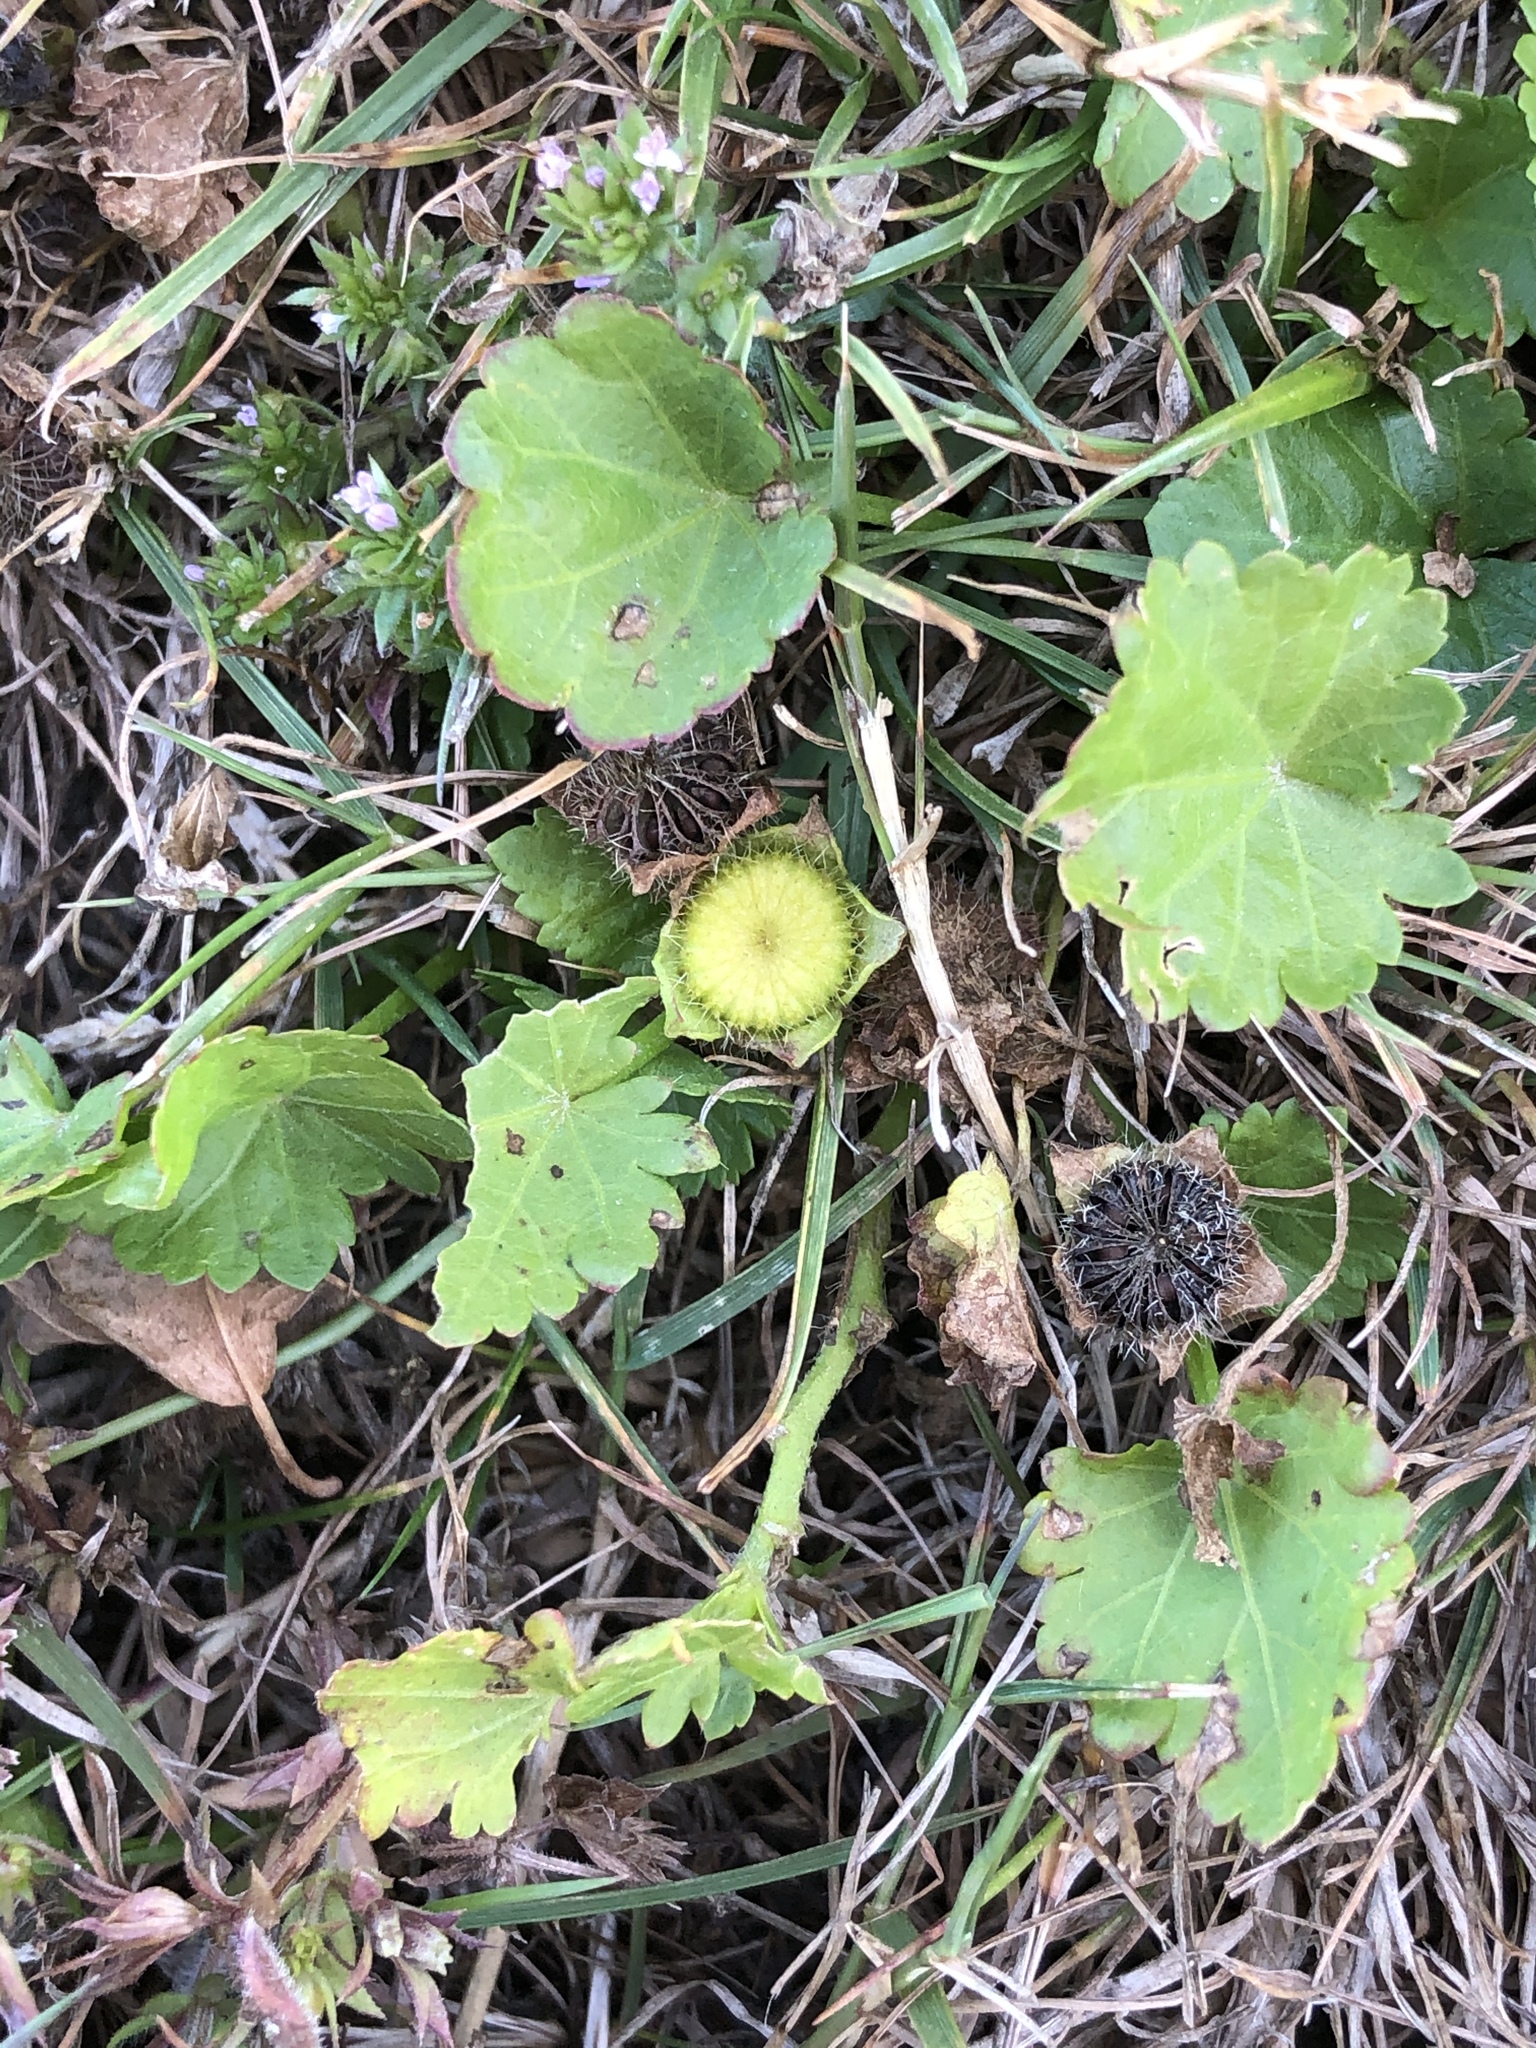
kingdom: Plantae
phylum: Tracheophyta
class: Magnoliopsida
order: Malvales
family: Malvaceae
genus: Modiola
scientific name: Modiola caroliniana
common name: Carolina bristlemallow
